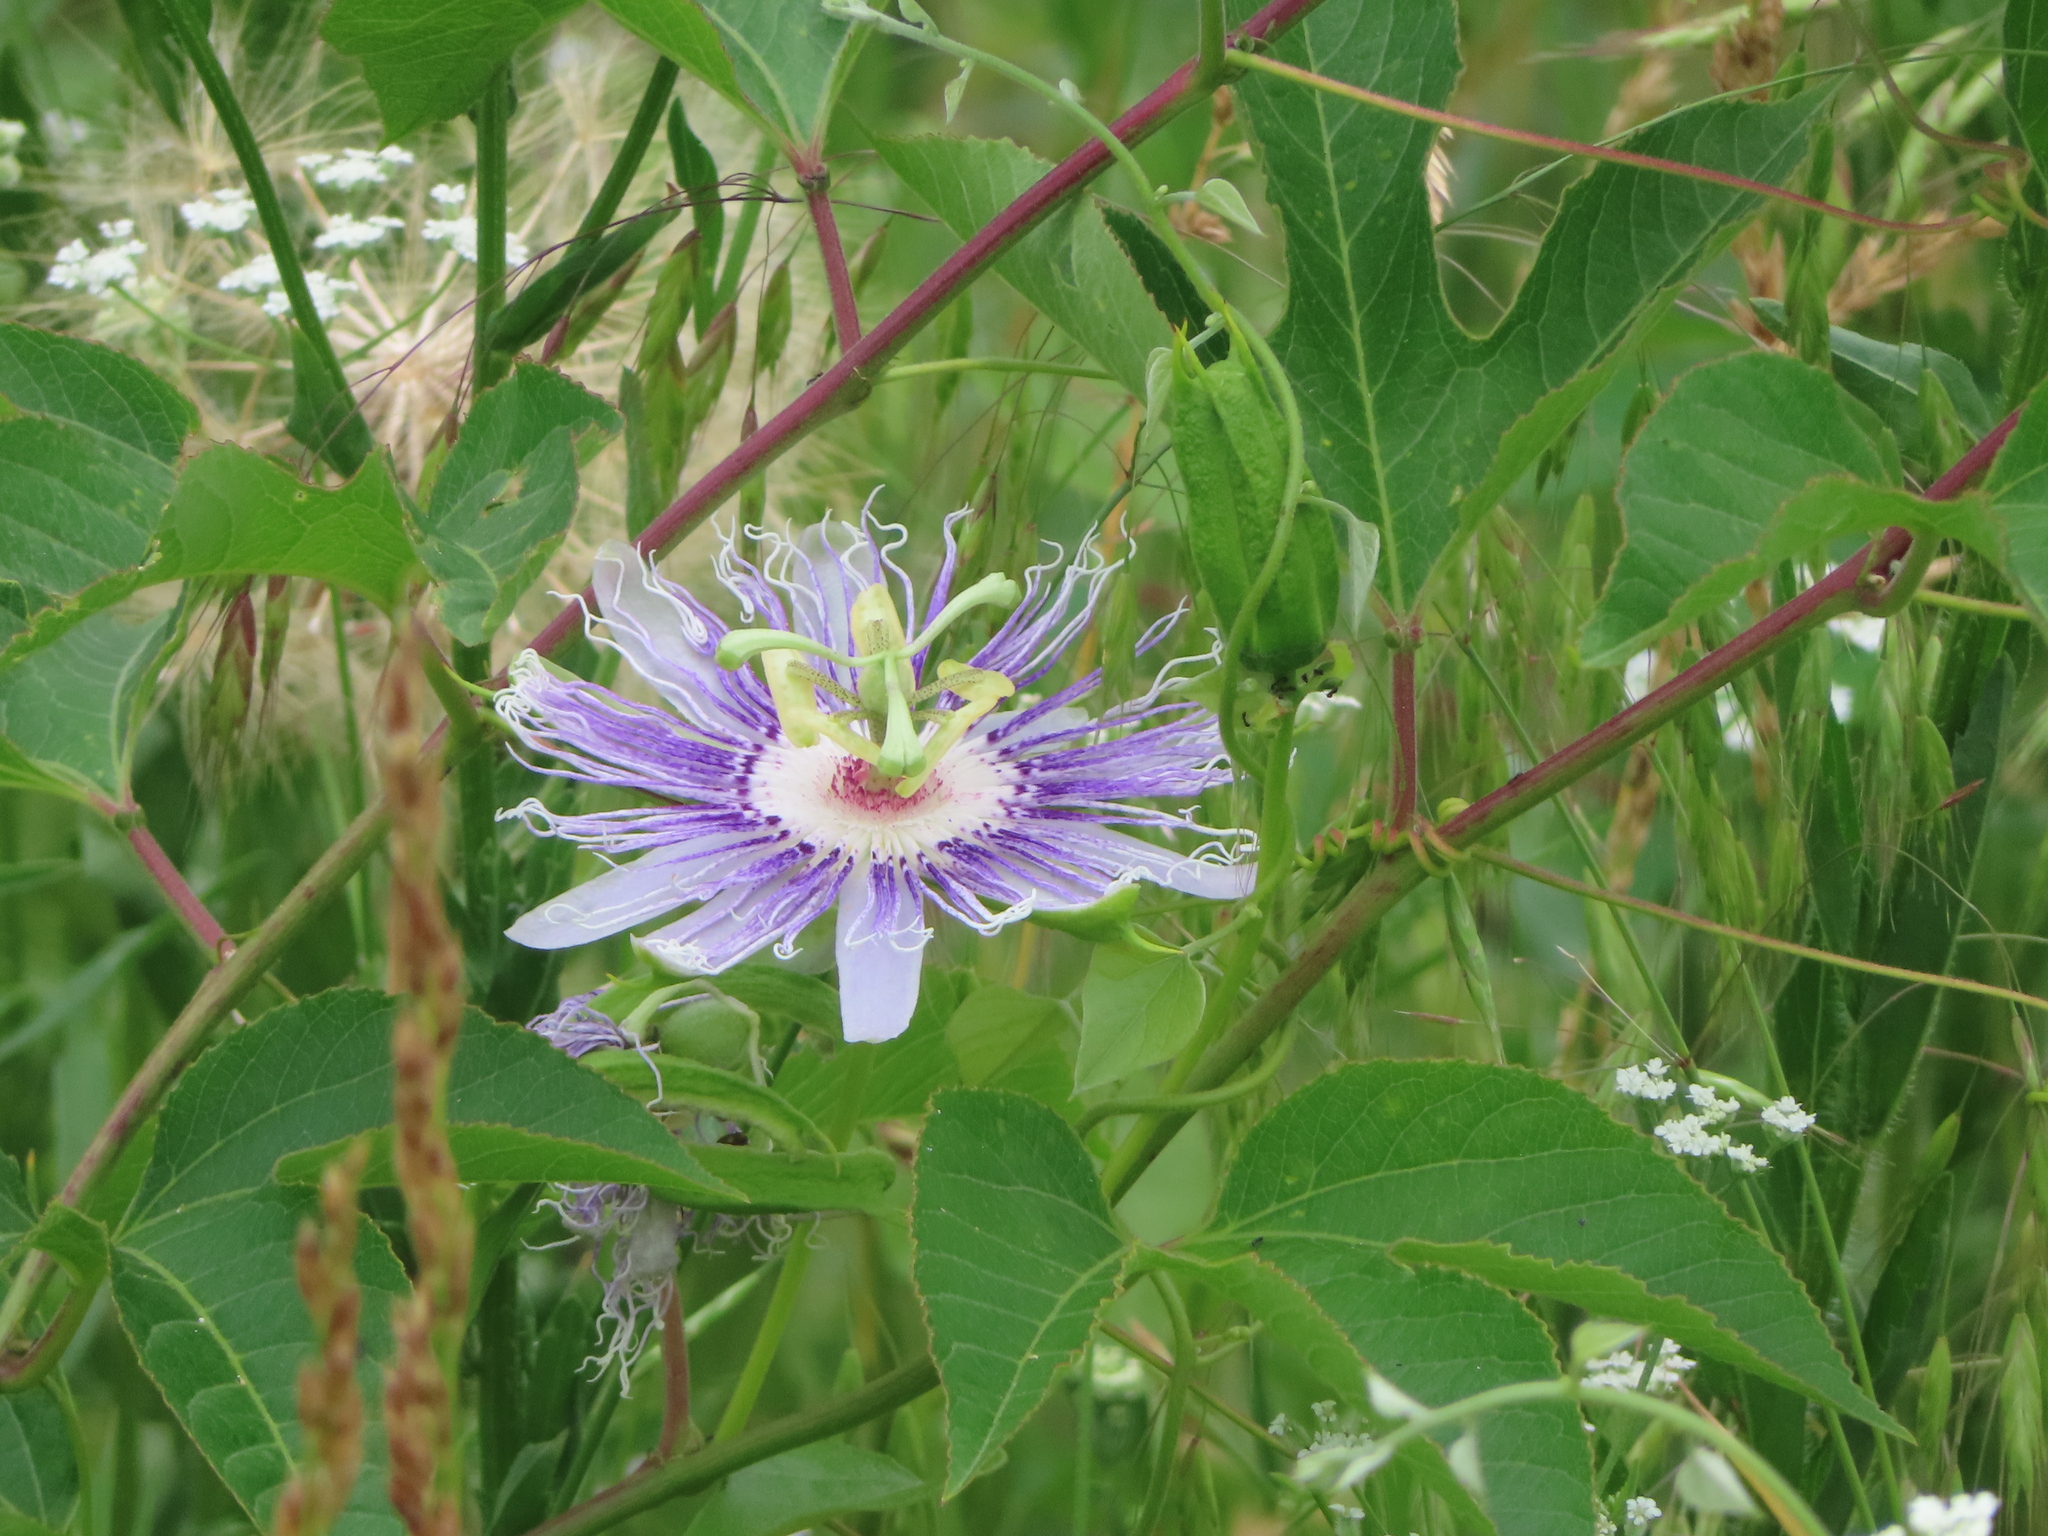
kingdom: Plantae
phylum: Tracheophyta
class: Magnoliopsida
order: Malpighiales
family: Passifloraceae
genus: Passiflora
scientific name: Passiflora incarnata
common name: Apricot-vine
